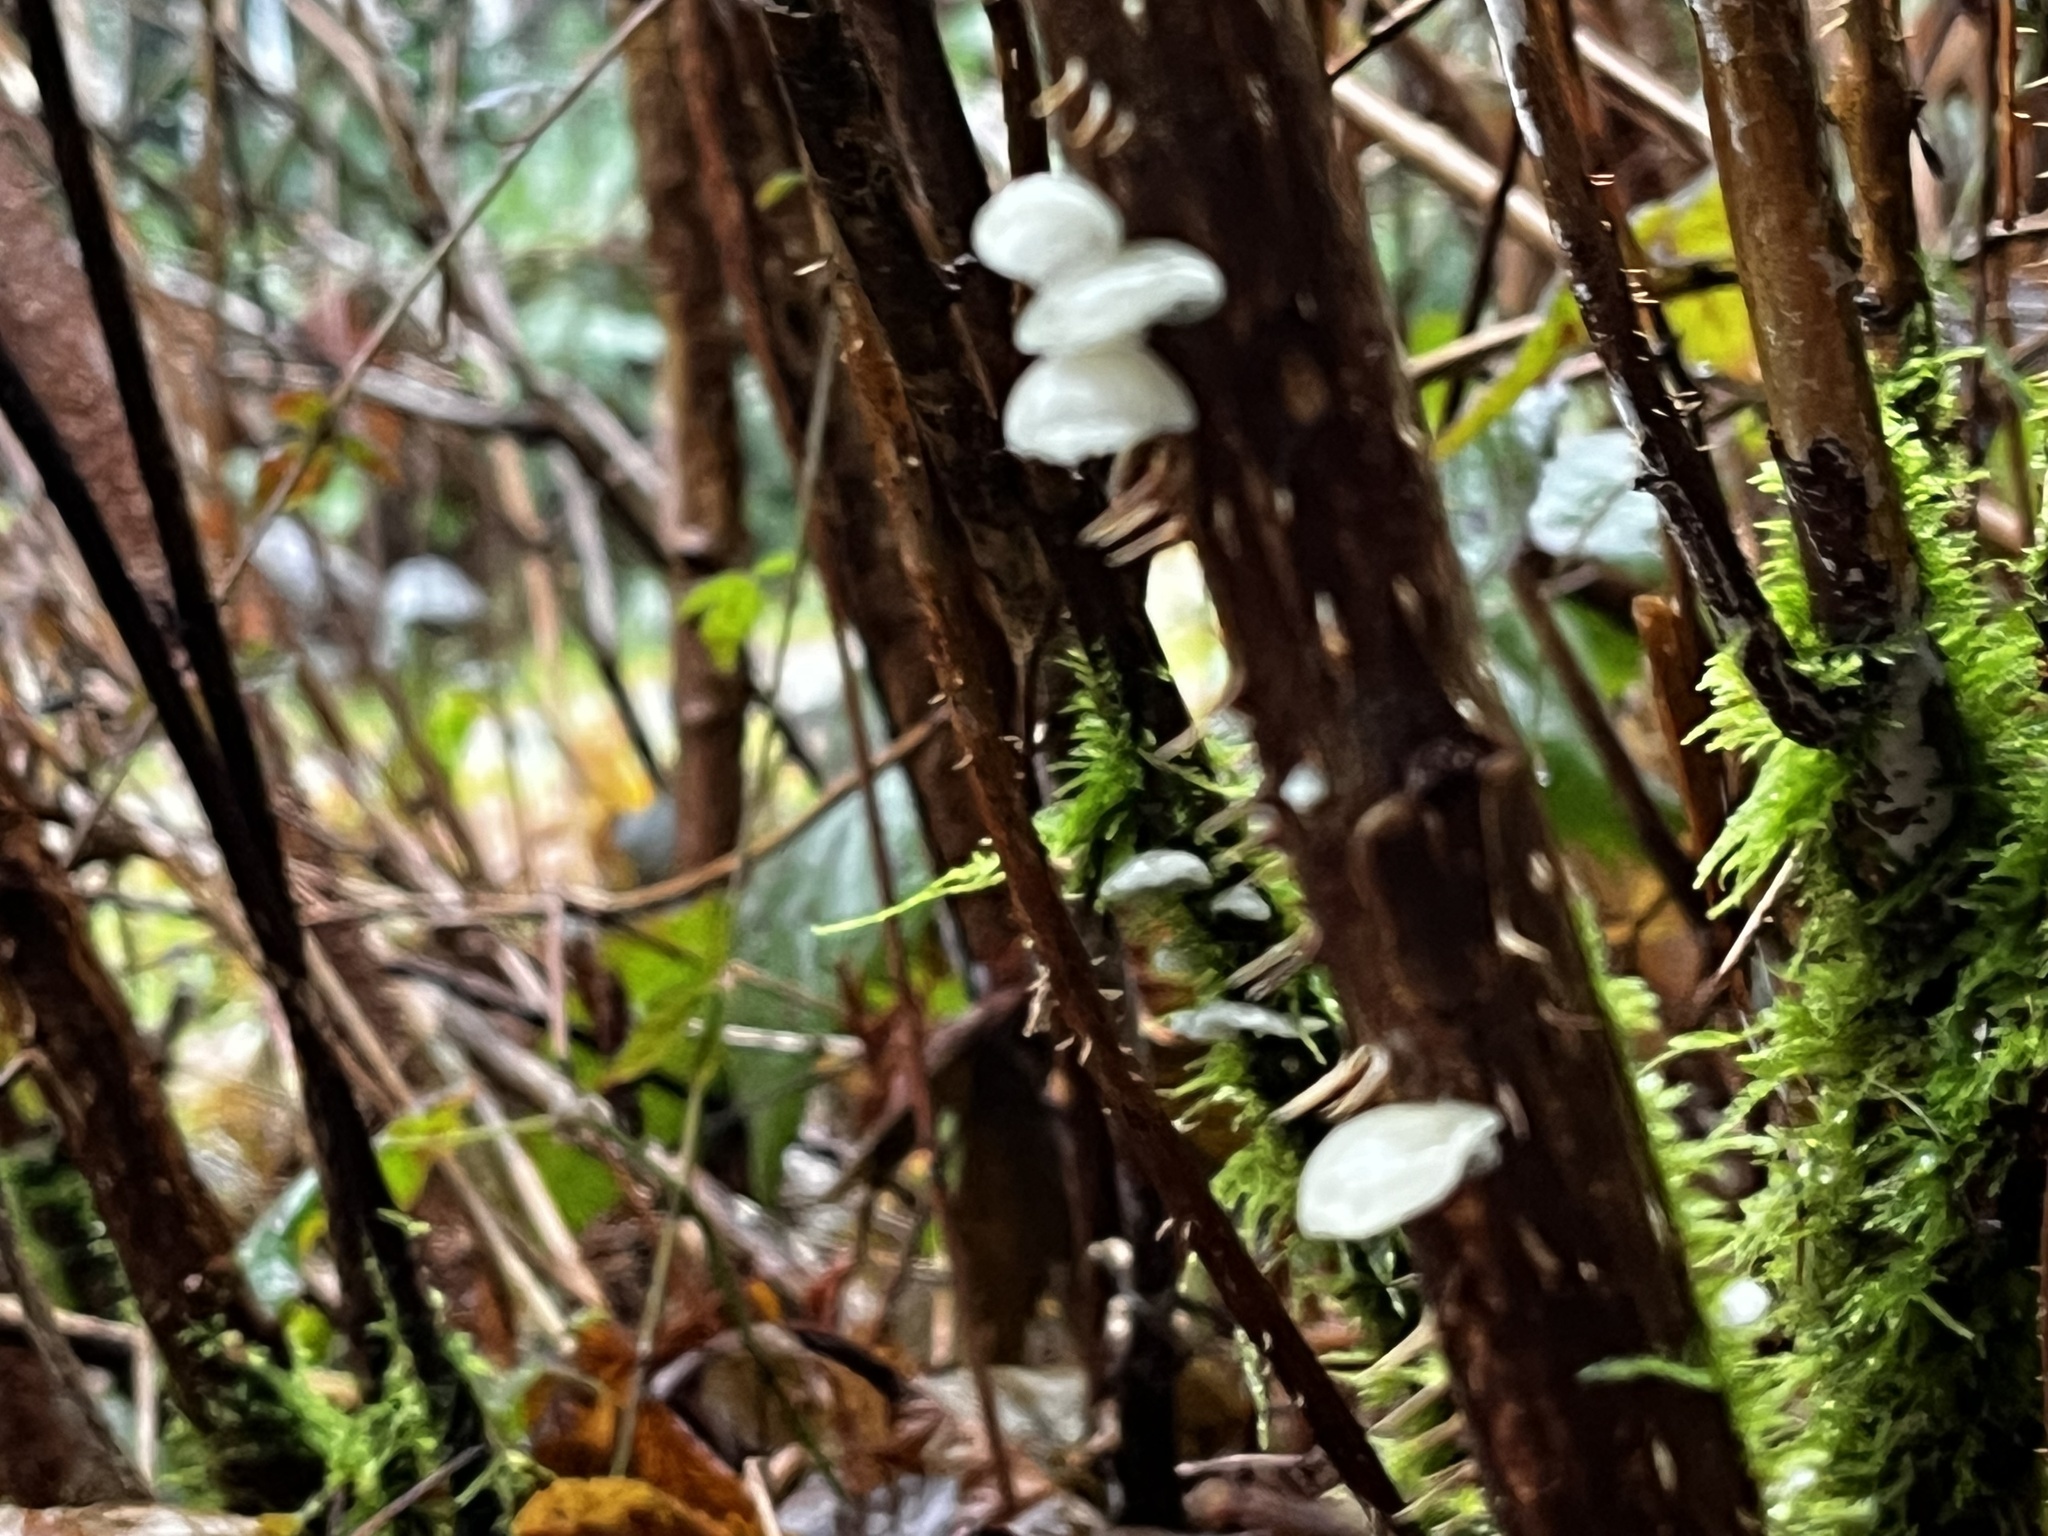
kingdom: Fungi
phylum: Basidiomycota
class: Agaricomycetes
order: Agaricales
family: Omphalotaceae
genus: Marasmiellus
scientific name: Marasmiellus candidus
